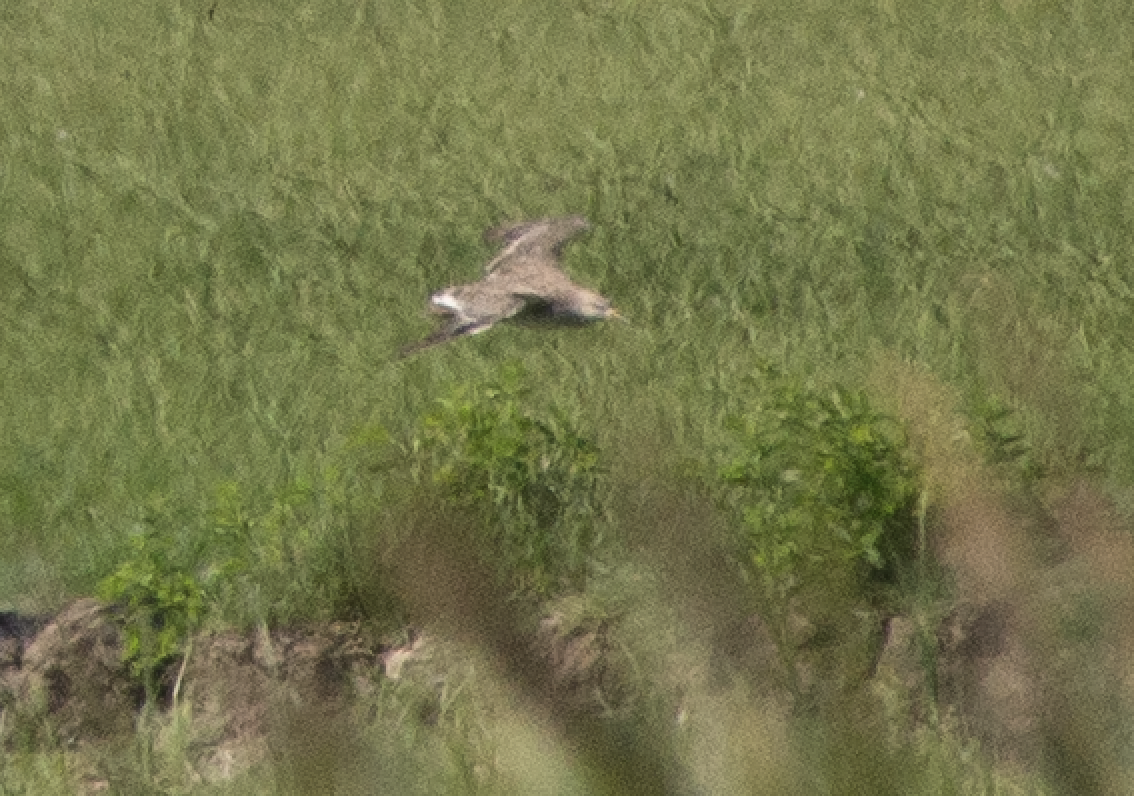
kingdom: Animalia
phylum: Chordata
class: Aves
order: Charadriiformes
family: Scolopacidae
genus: Calidris
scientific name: Calidris pugnax
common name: Ruff
